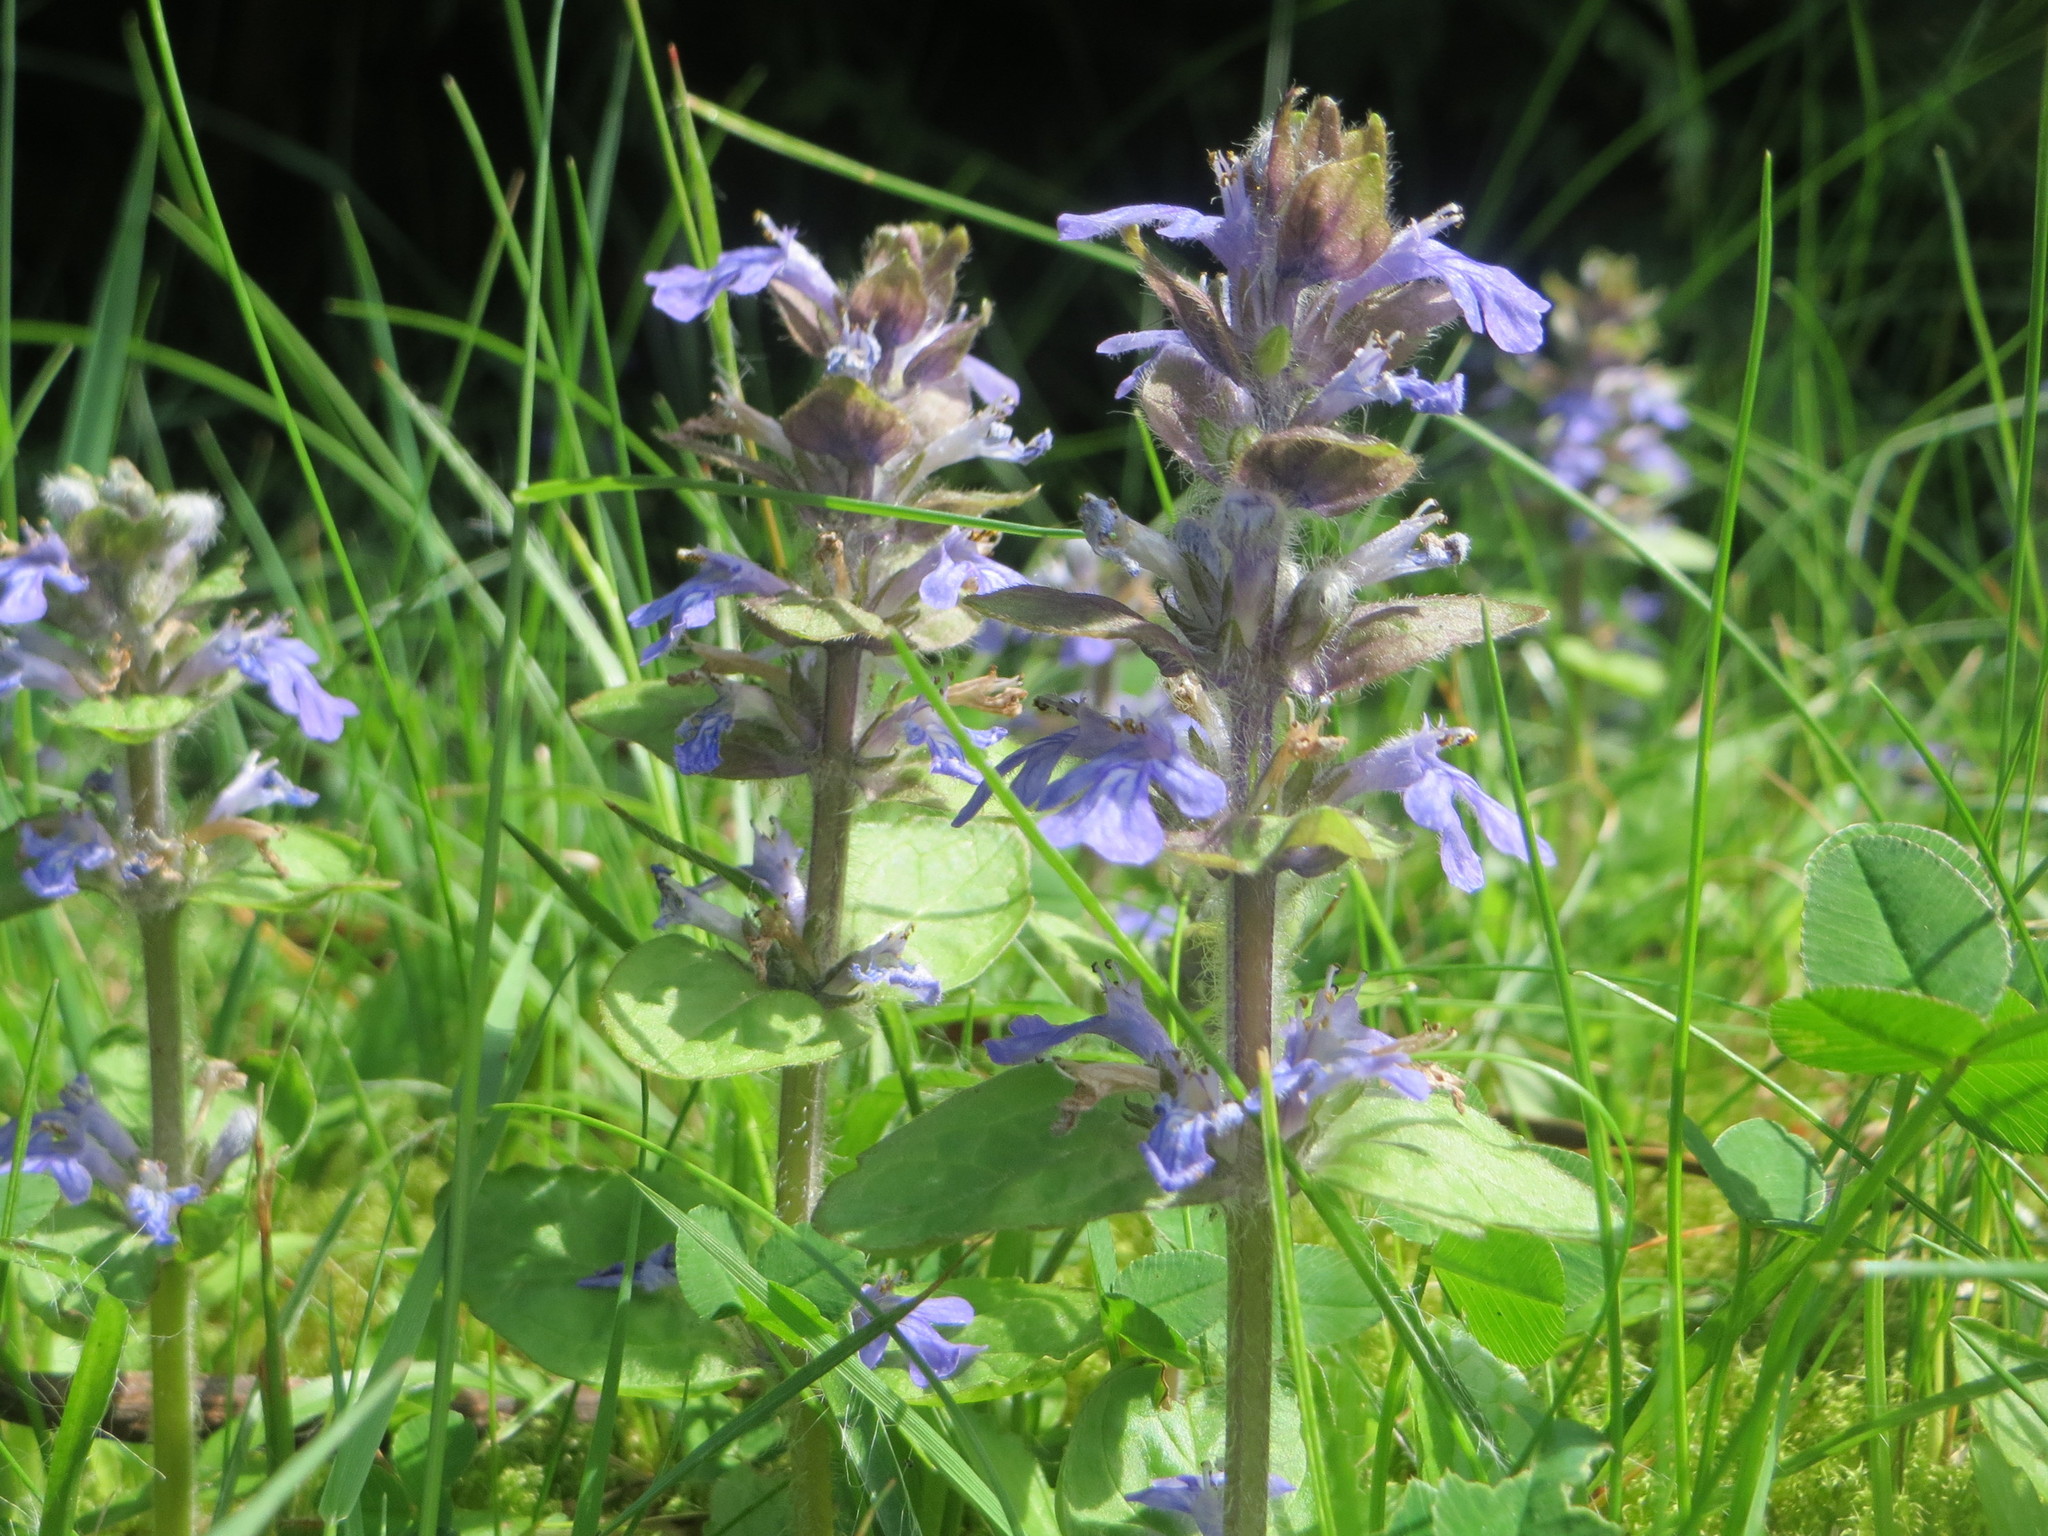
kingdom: Plantae
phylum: Tracheophyta
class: Magnoliopsida
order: Lamiales
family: Lamiaceae
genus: Ajuga
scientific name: Ajuga reptans
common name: Bugle
